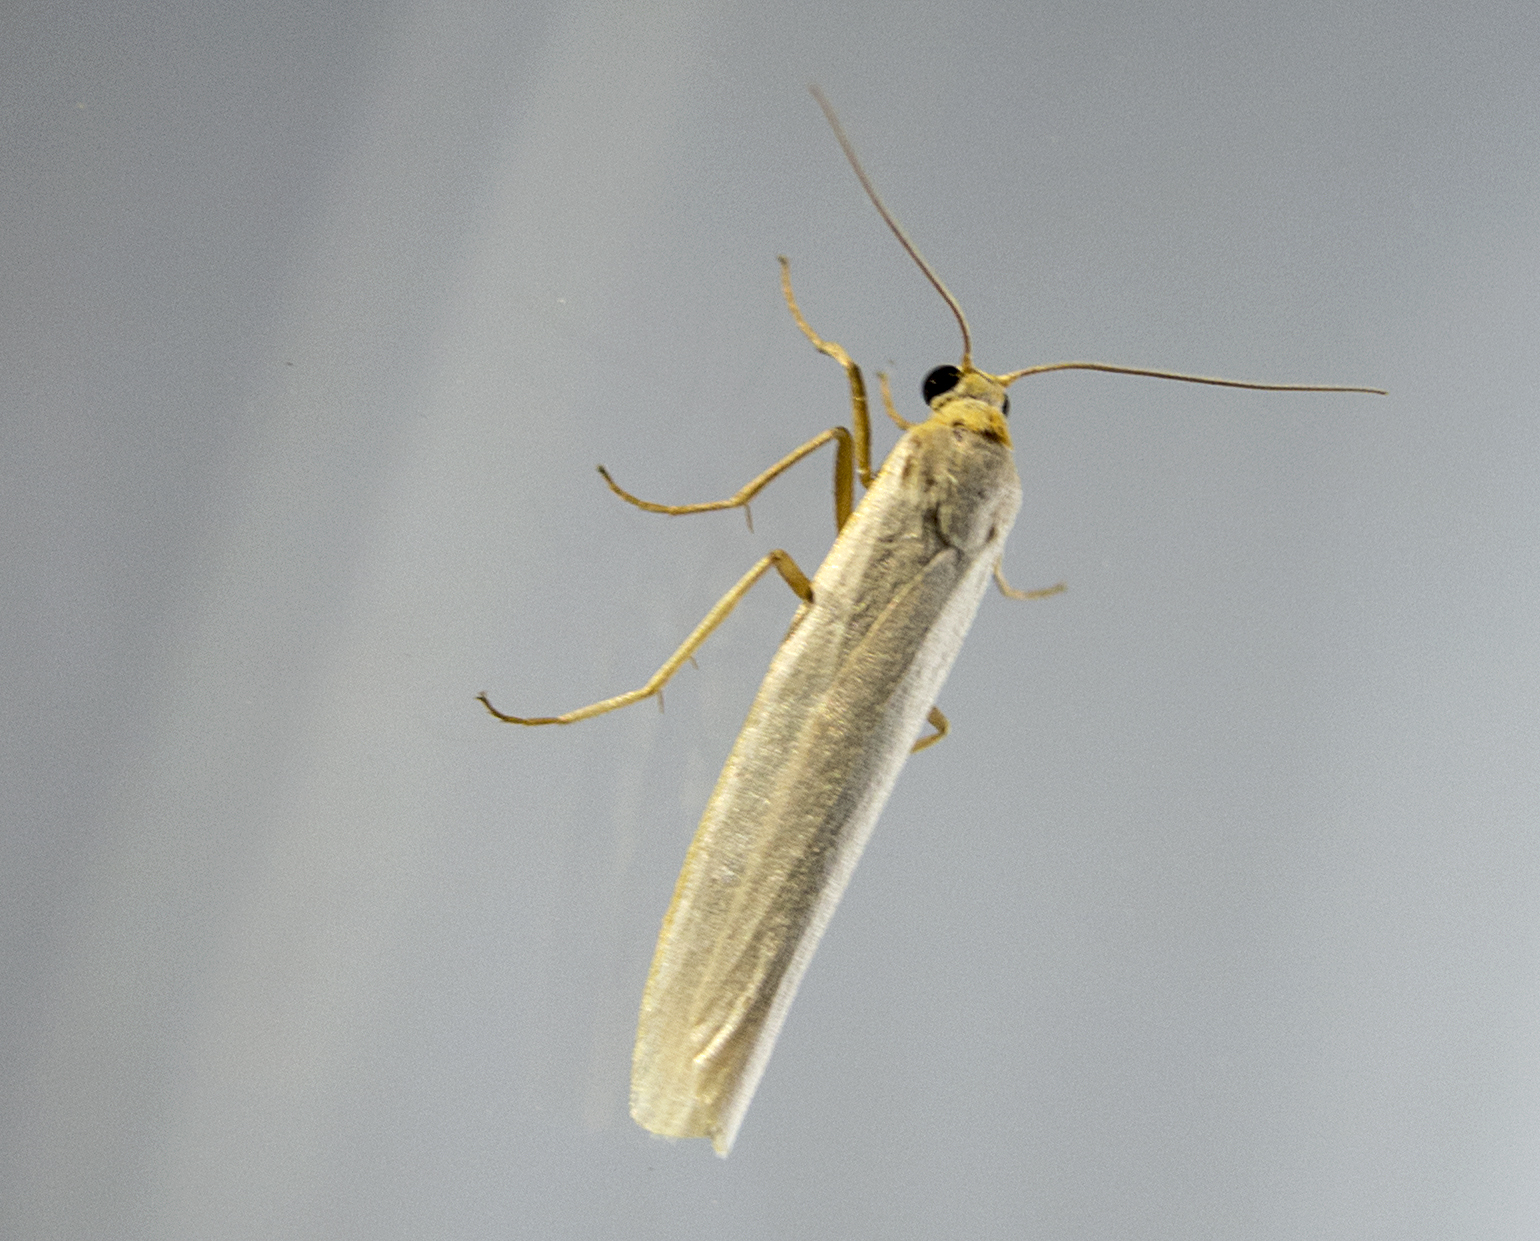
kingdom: Animalia
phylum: Arthropoda
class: Insecta
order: Lepidoptera
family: Erebidae
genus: Eilema
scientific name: Eilema caniola
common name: Hoary footman
